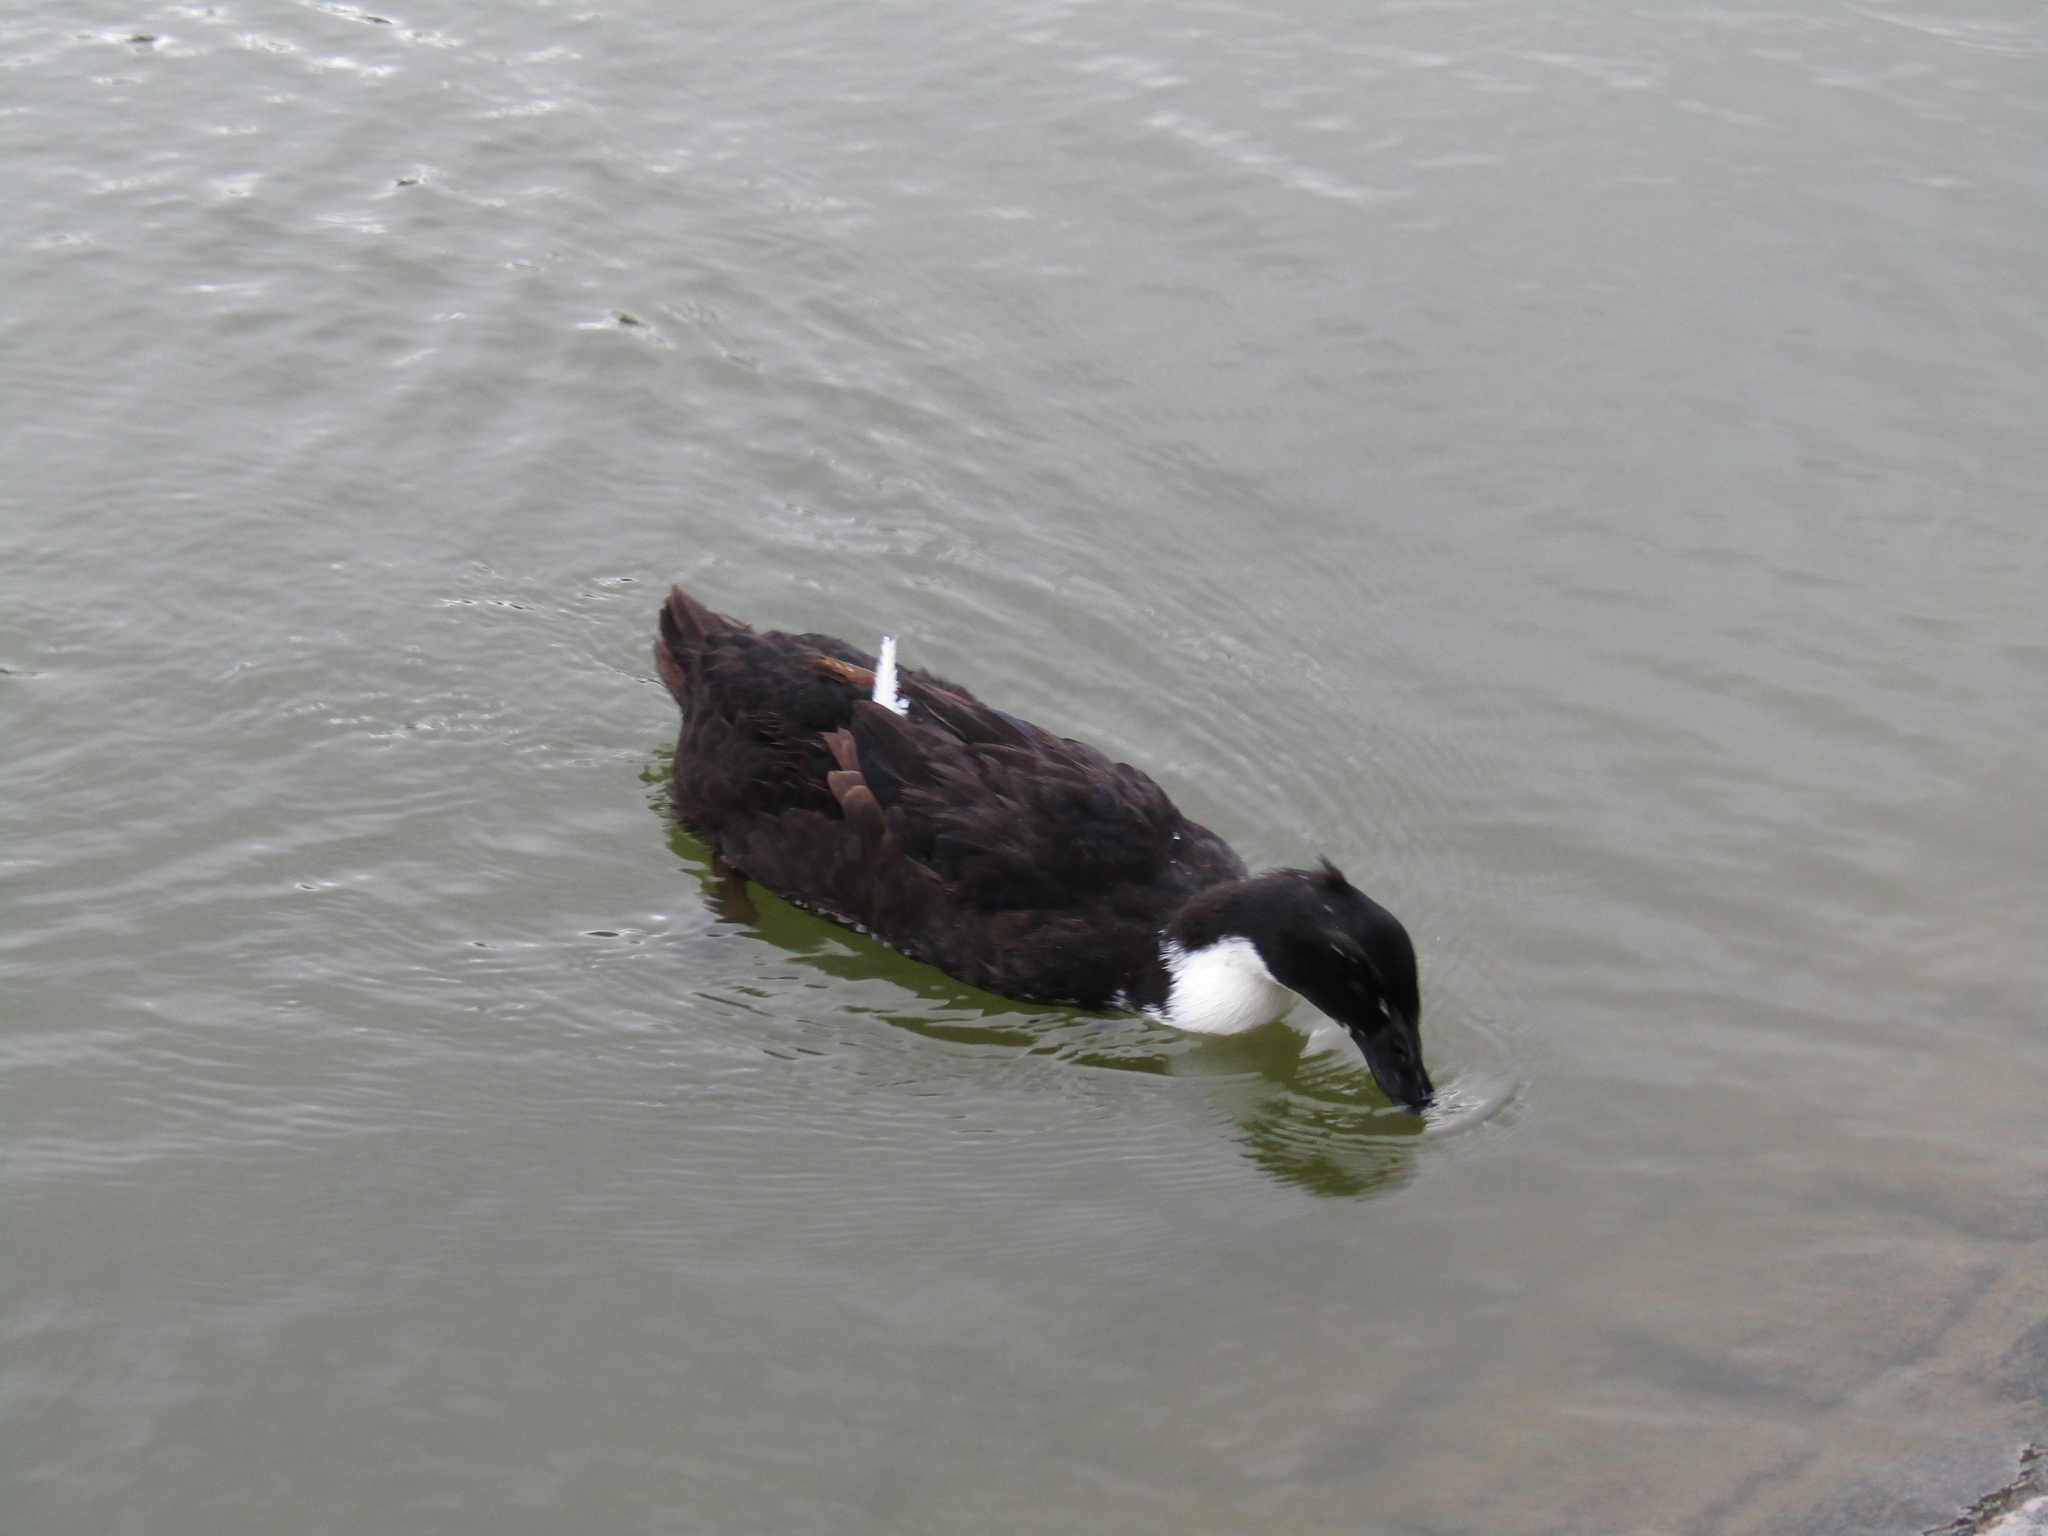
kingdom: Animalia
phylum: Chordata
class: Aves
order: Anseriformes
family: Anatidae
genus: Anas
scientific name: Anas platyrhynchos
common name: Mallard
